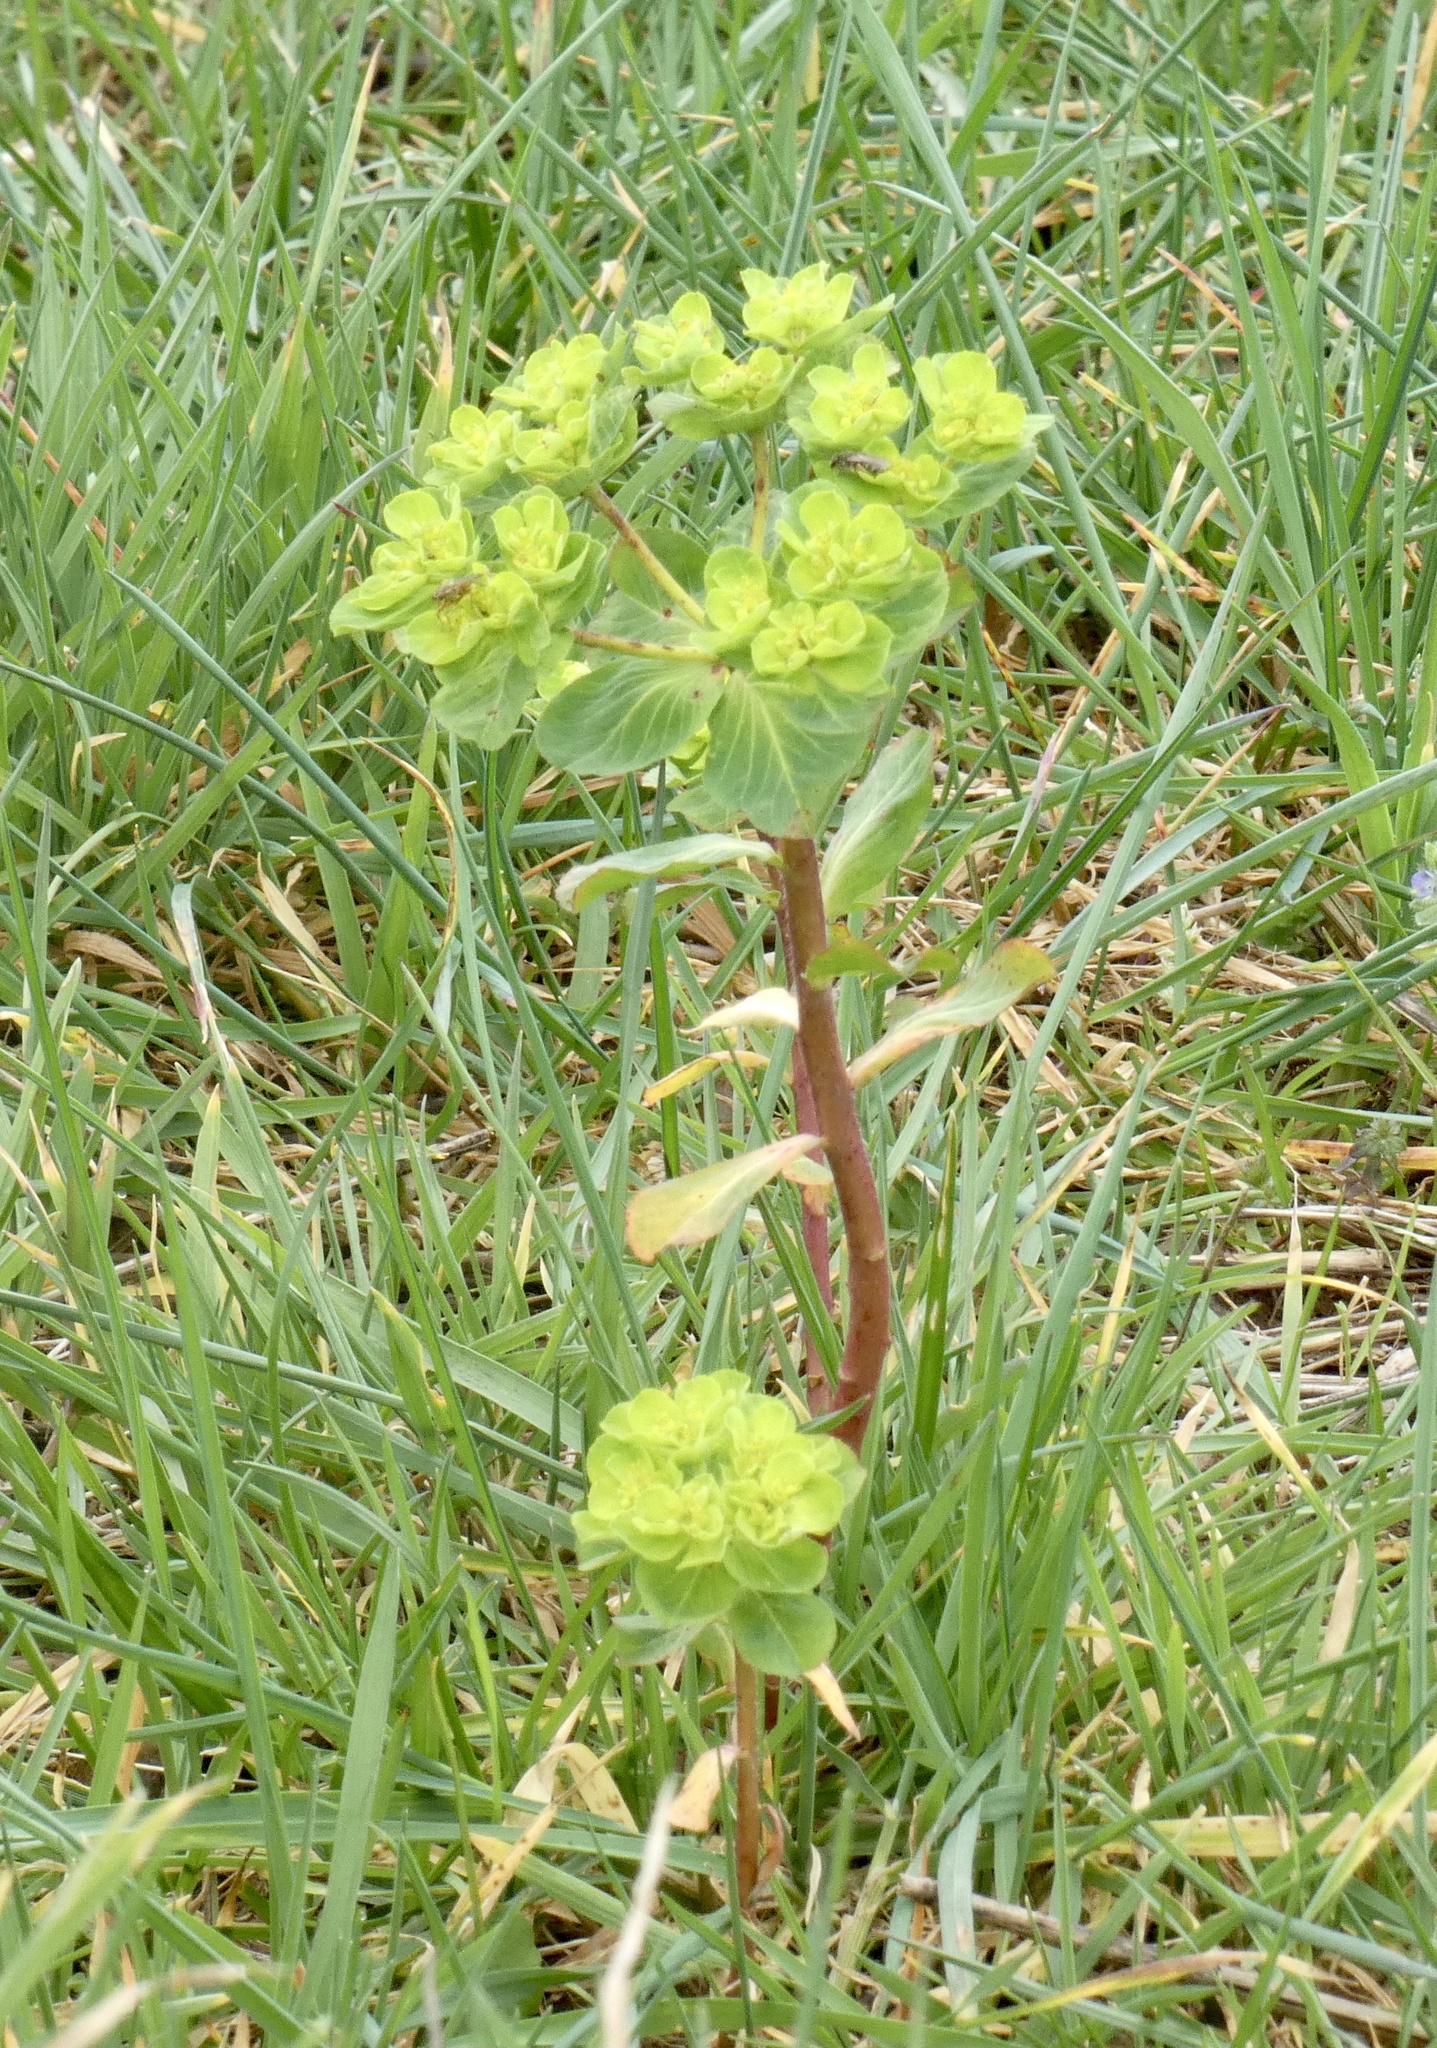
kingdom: Plantae
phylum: Tracheophyta
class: Magnoliopsida
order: Malpighiales
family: Euphorbiaceae
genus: Euphorbia
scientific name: Euphorbia helioscopia
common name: Sun spurge
